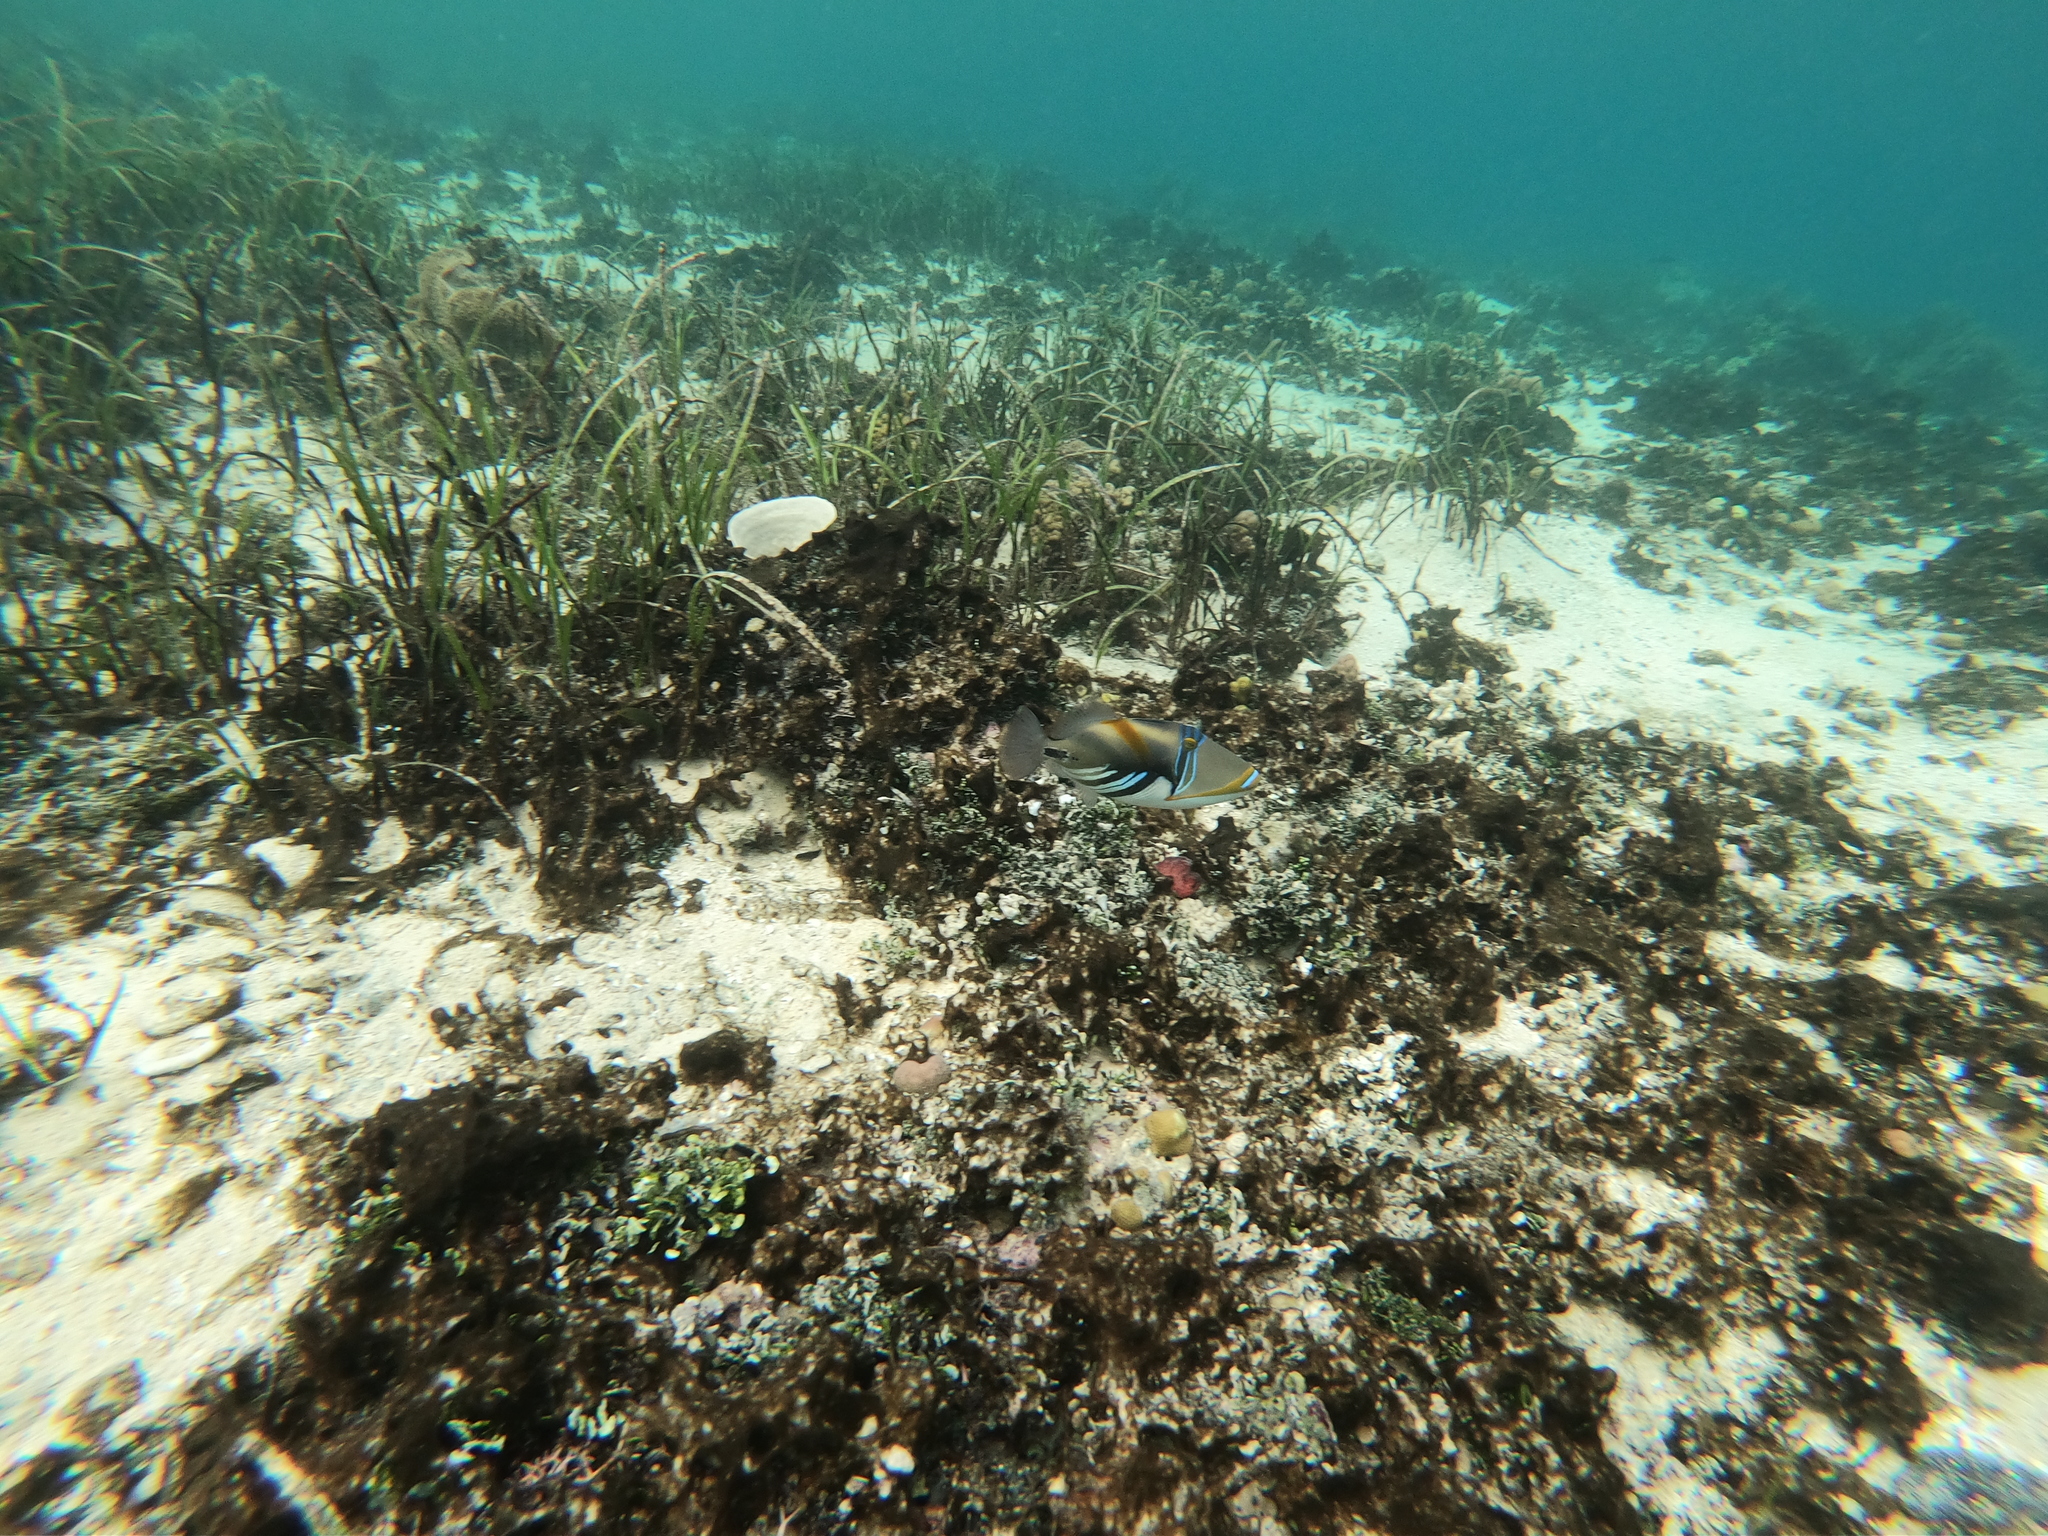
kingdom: Animalia
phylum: Chordata
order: Tetraodontiformes
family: Balistidae
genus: Rhinecanthus
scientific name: Rhinecanthus aculeatus
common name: White-banded triggerfish
